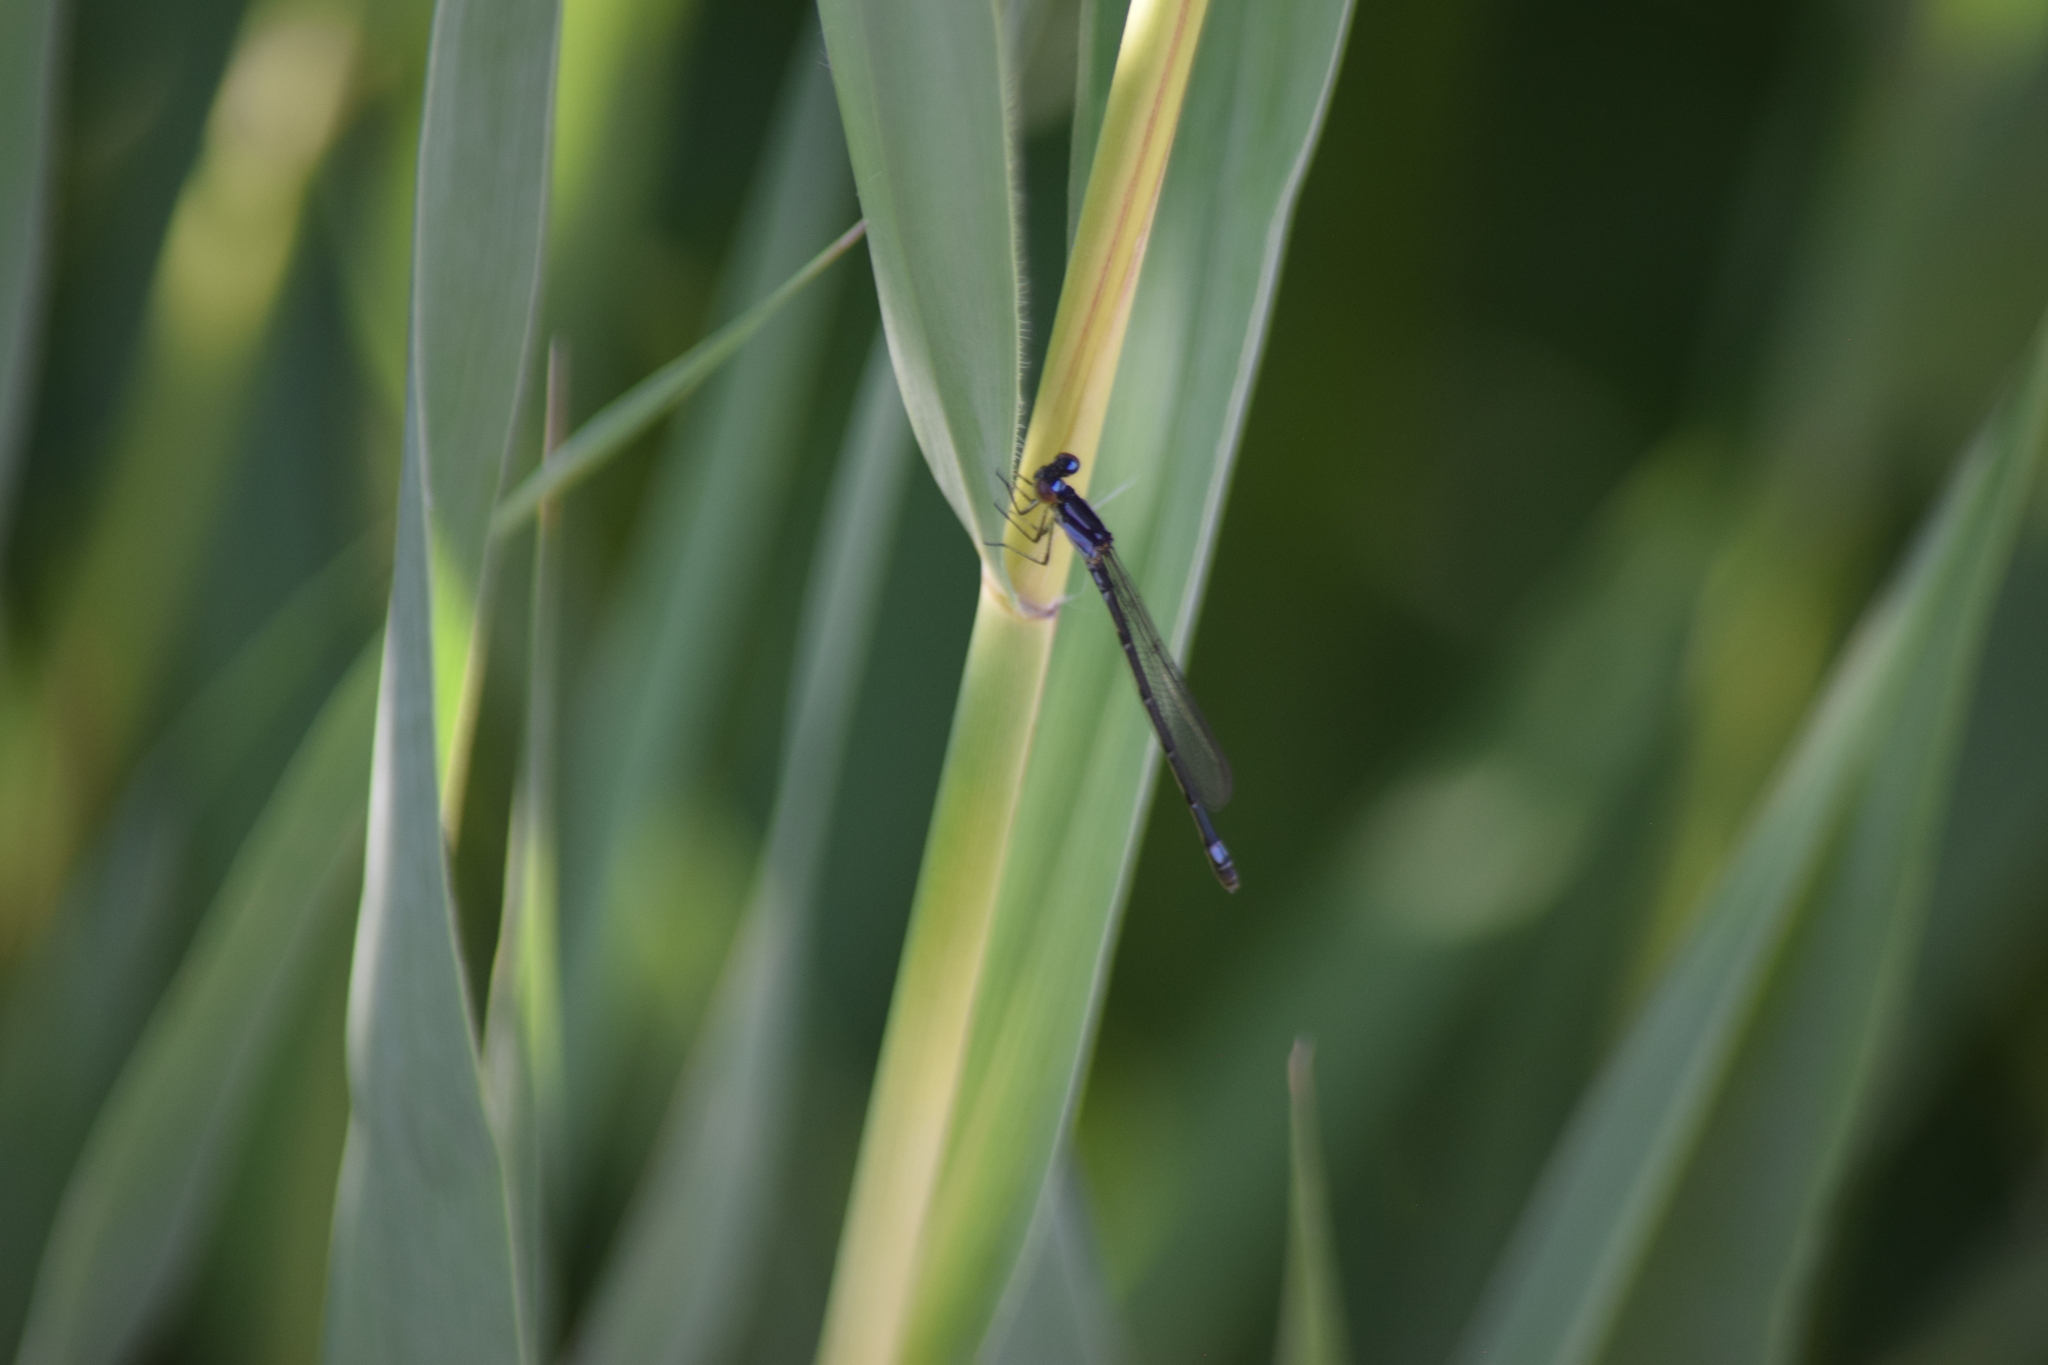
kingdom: Animalia
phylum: Arthropoda
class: Insecta
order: Odonata
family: Coenagrionidae
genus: Enallagma
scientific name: Enallagma geminatum
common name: Skimming bluet
